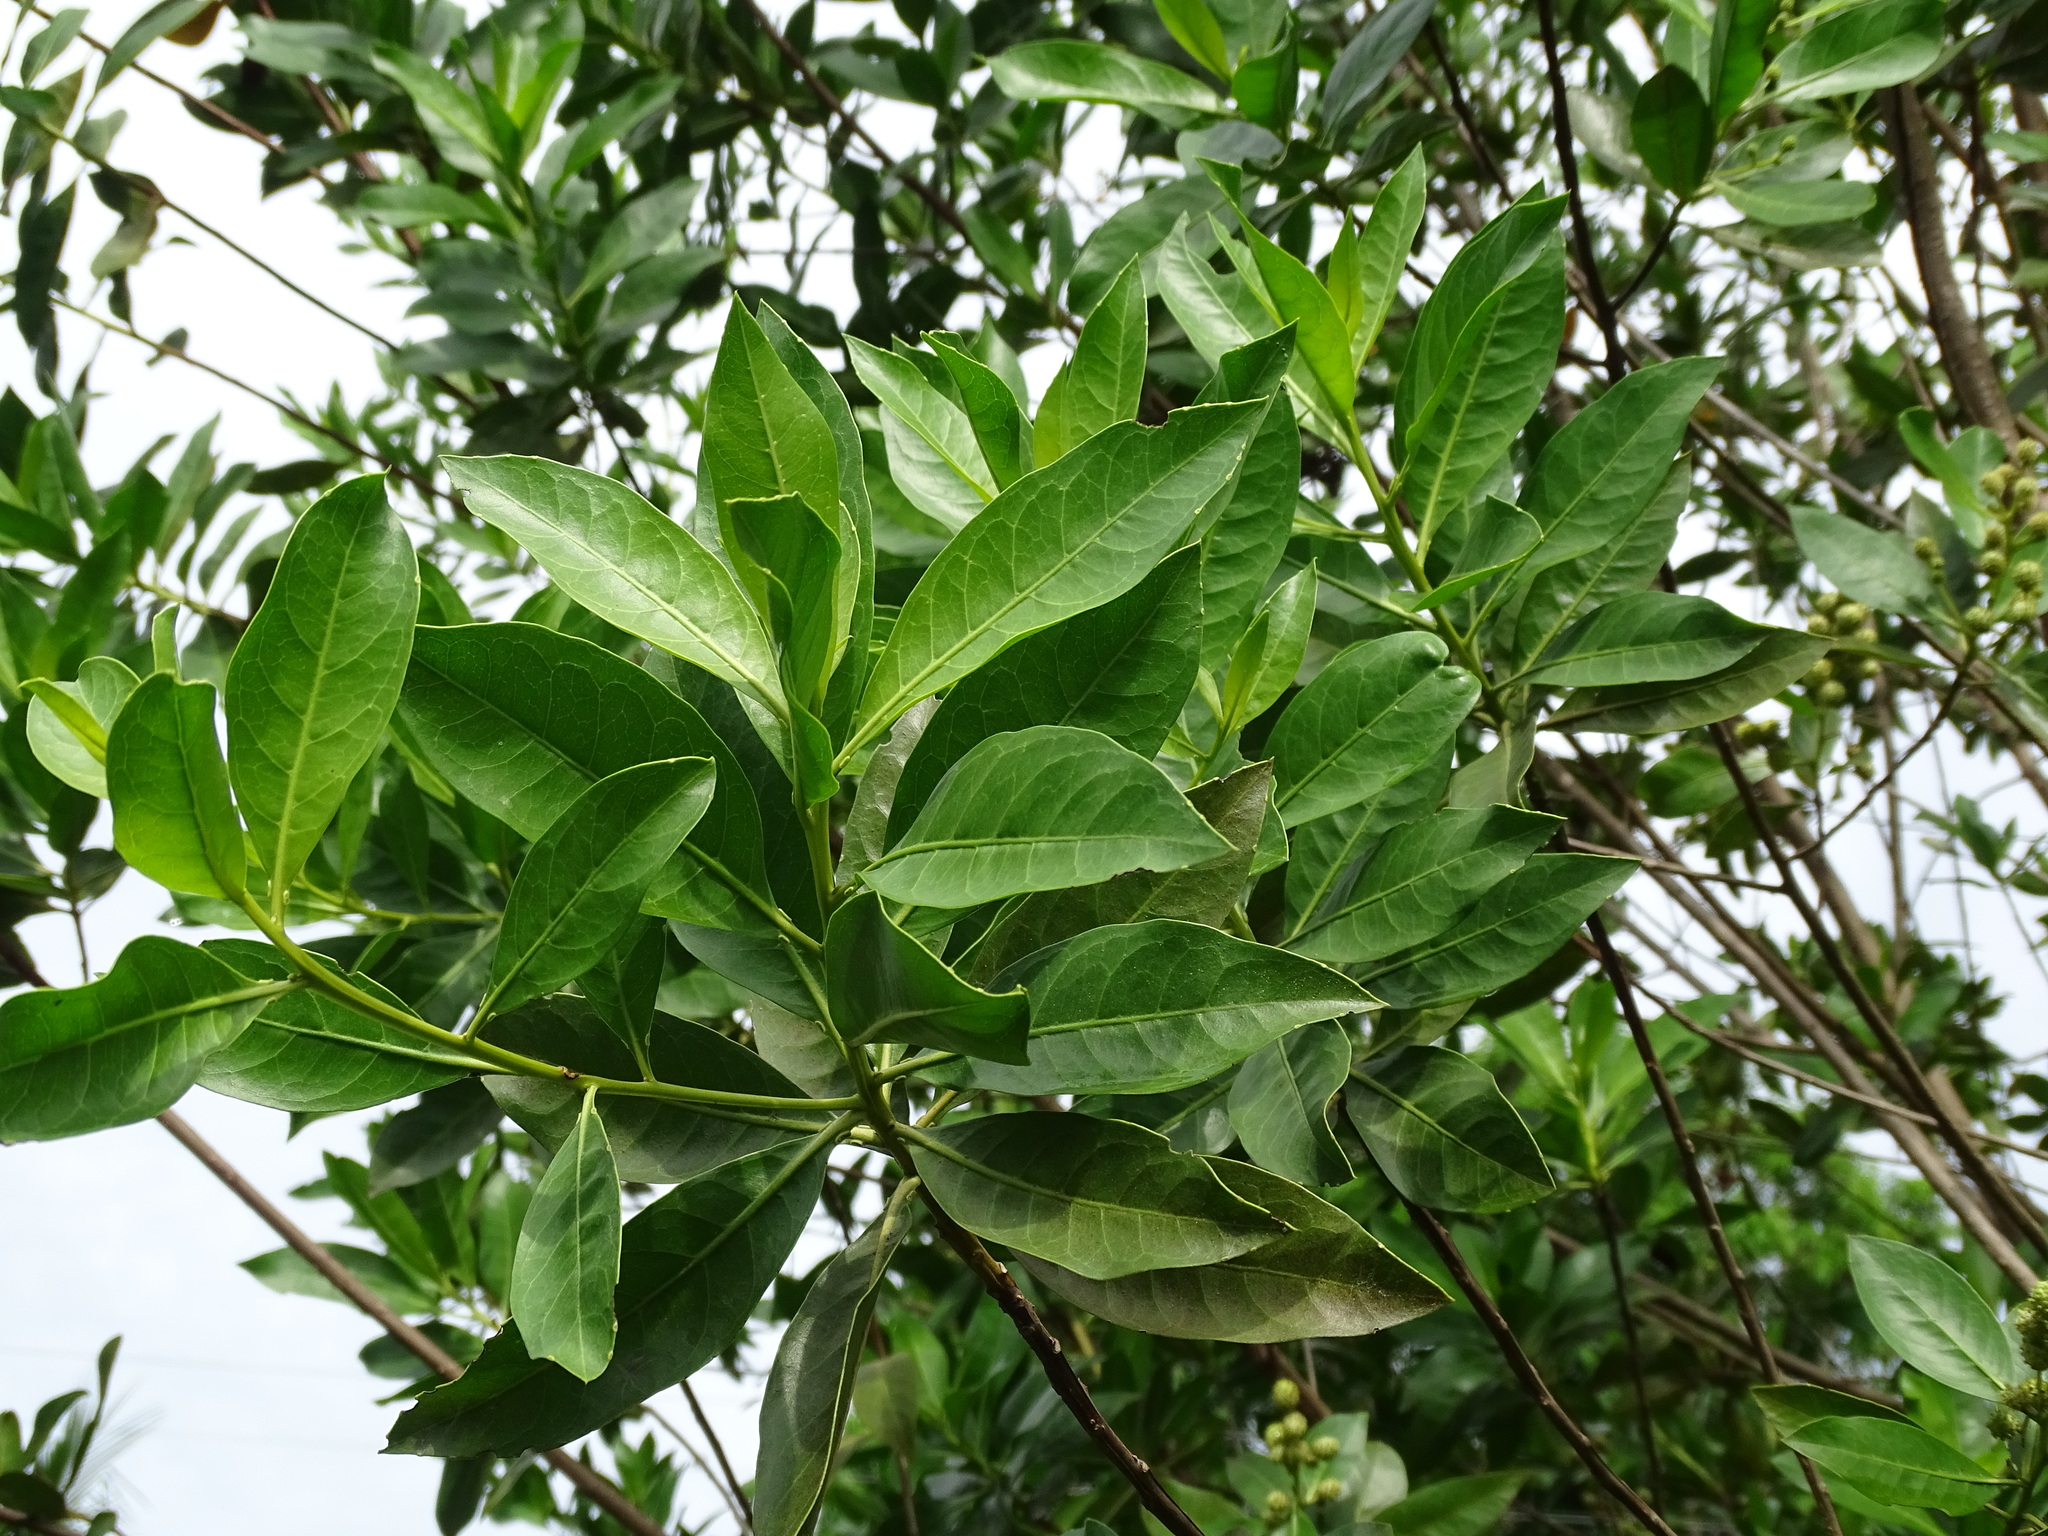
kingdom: Plantae
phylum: Tracheophyta
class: Magnoliopsida
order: Myrtales
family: Combretaceae
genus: Conocarpus
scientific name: Conocarpus erectus
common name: Button mangrove
